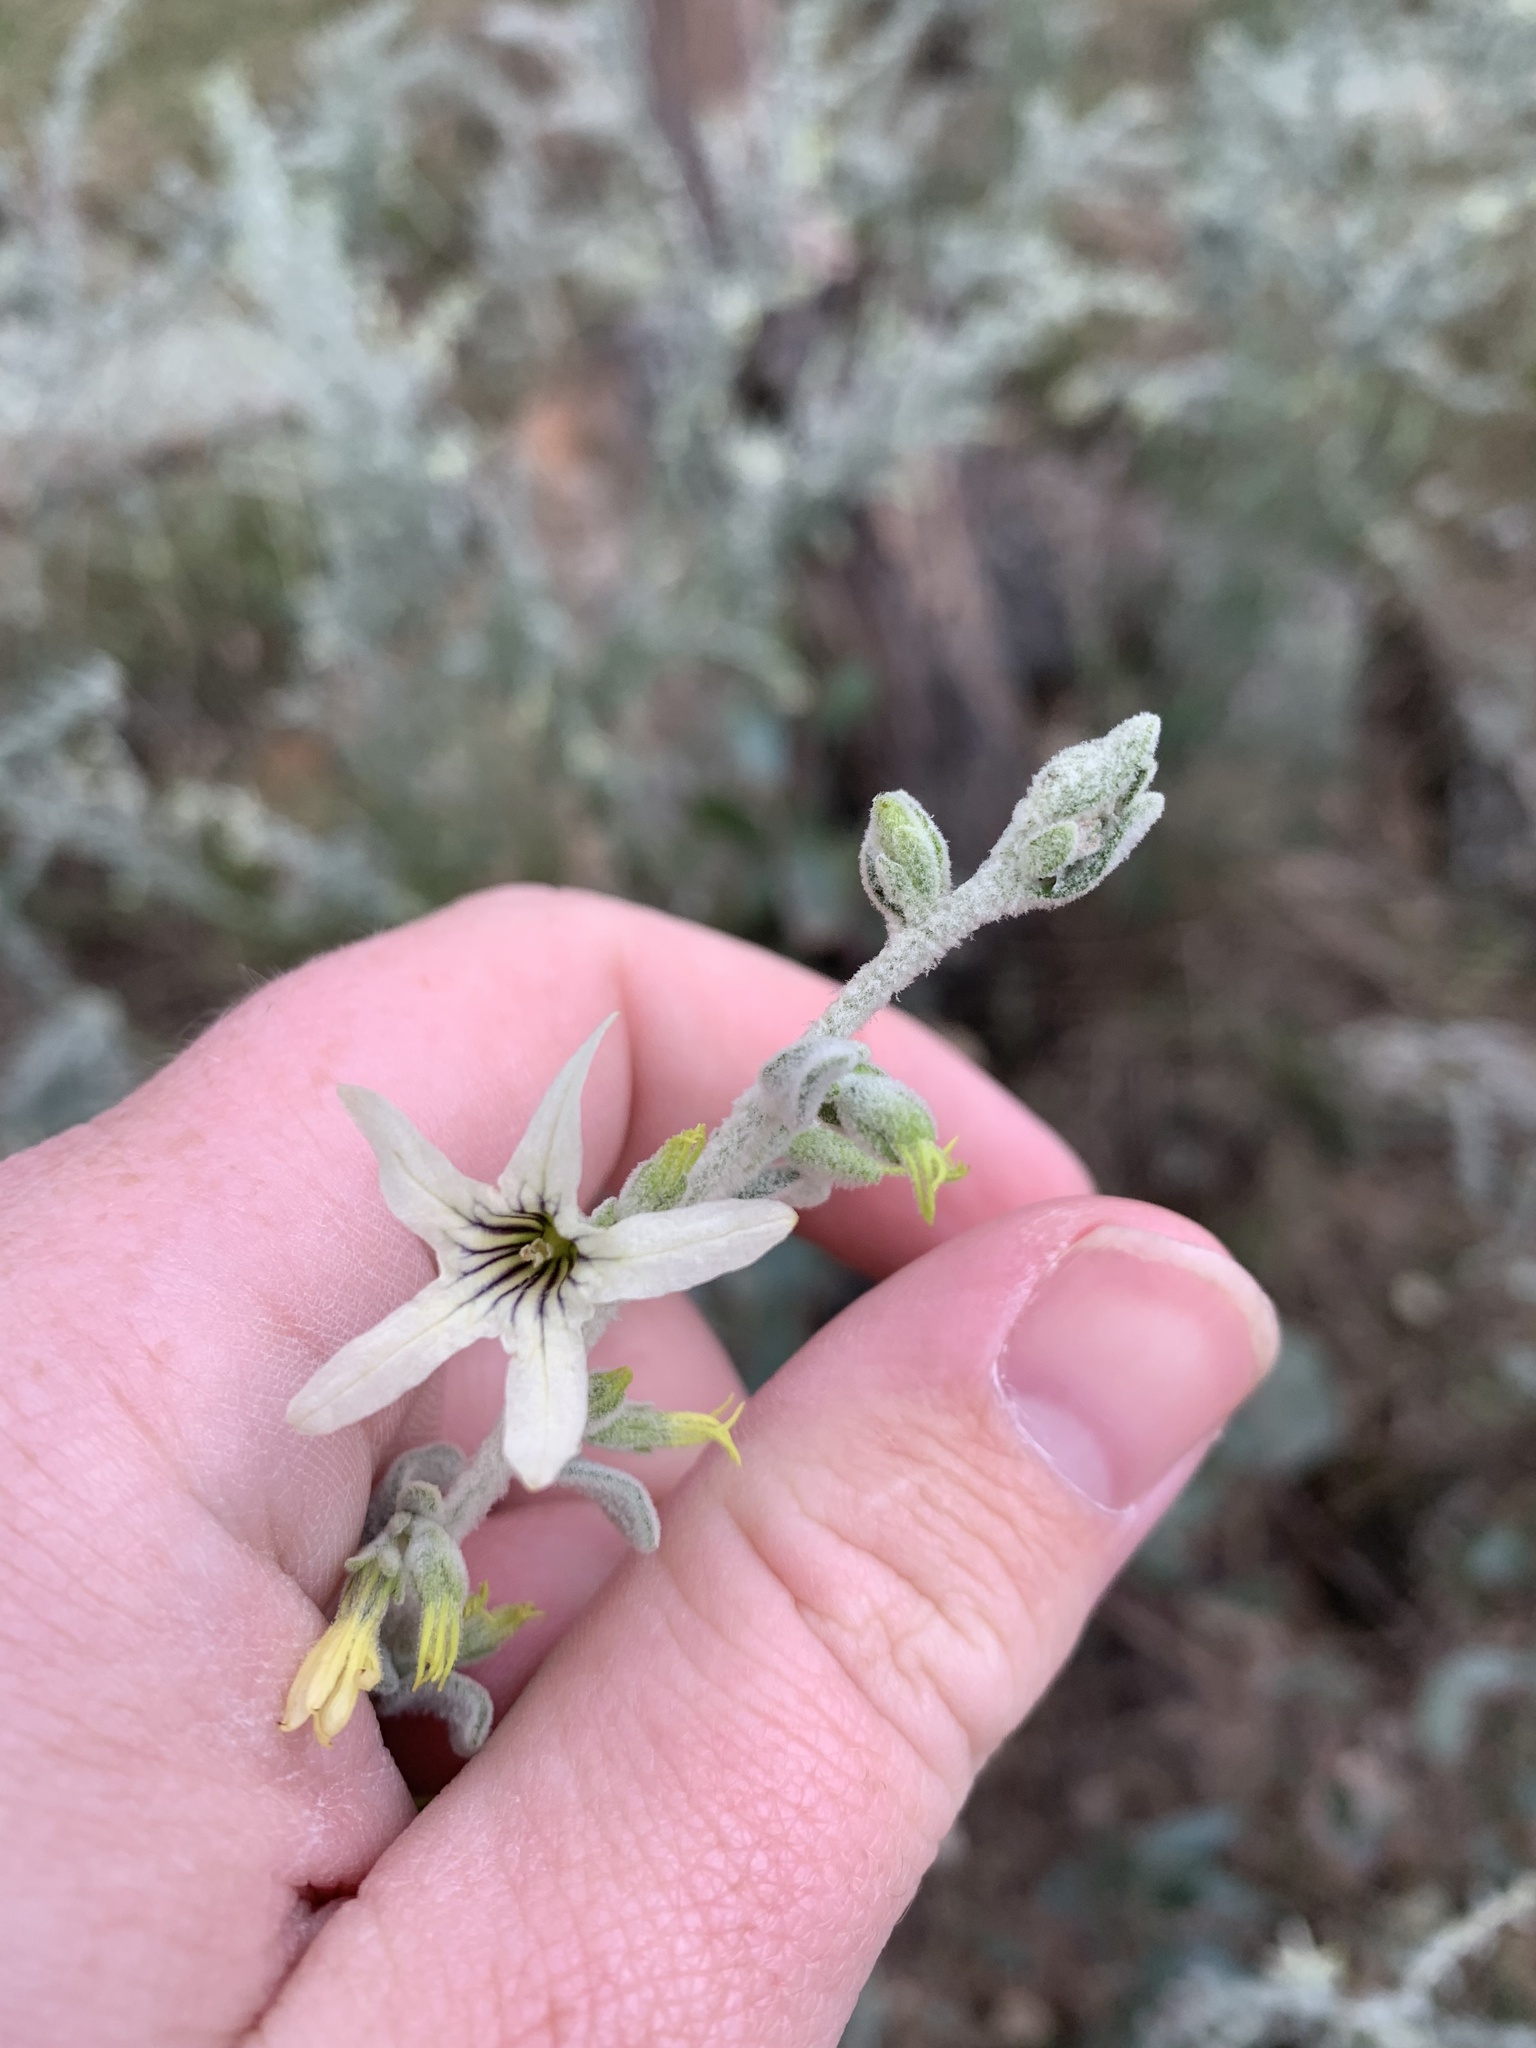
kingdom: Plantae
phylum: Tracheophyta
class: Magnoliopsida
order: Solanales
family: Solanaceae
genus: Cyphanthera
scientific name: Cyphanthera albicans
